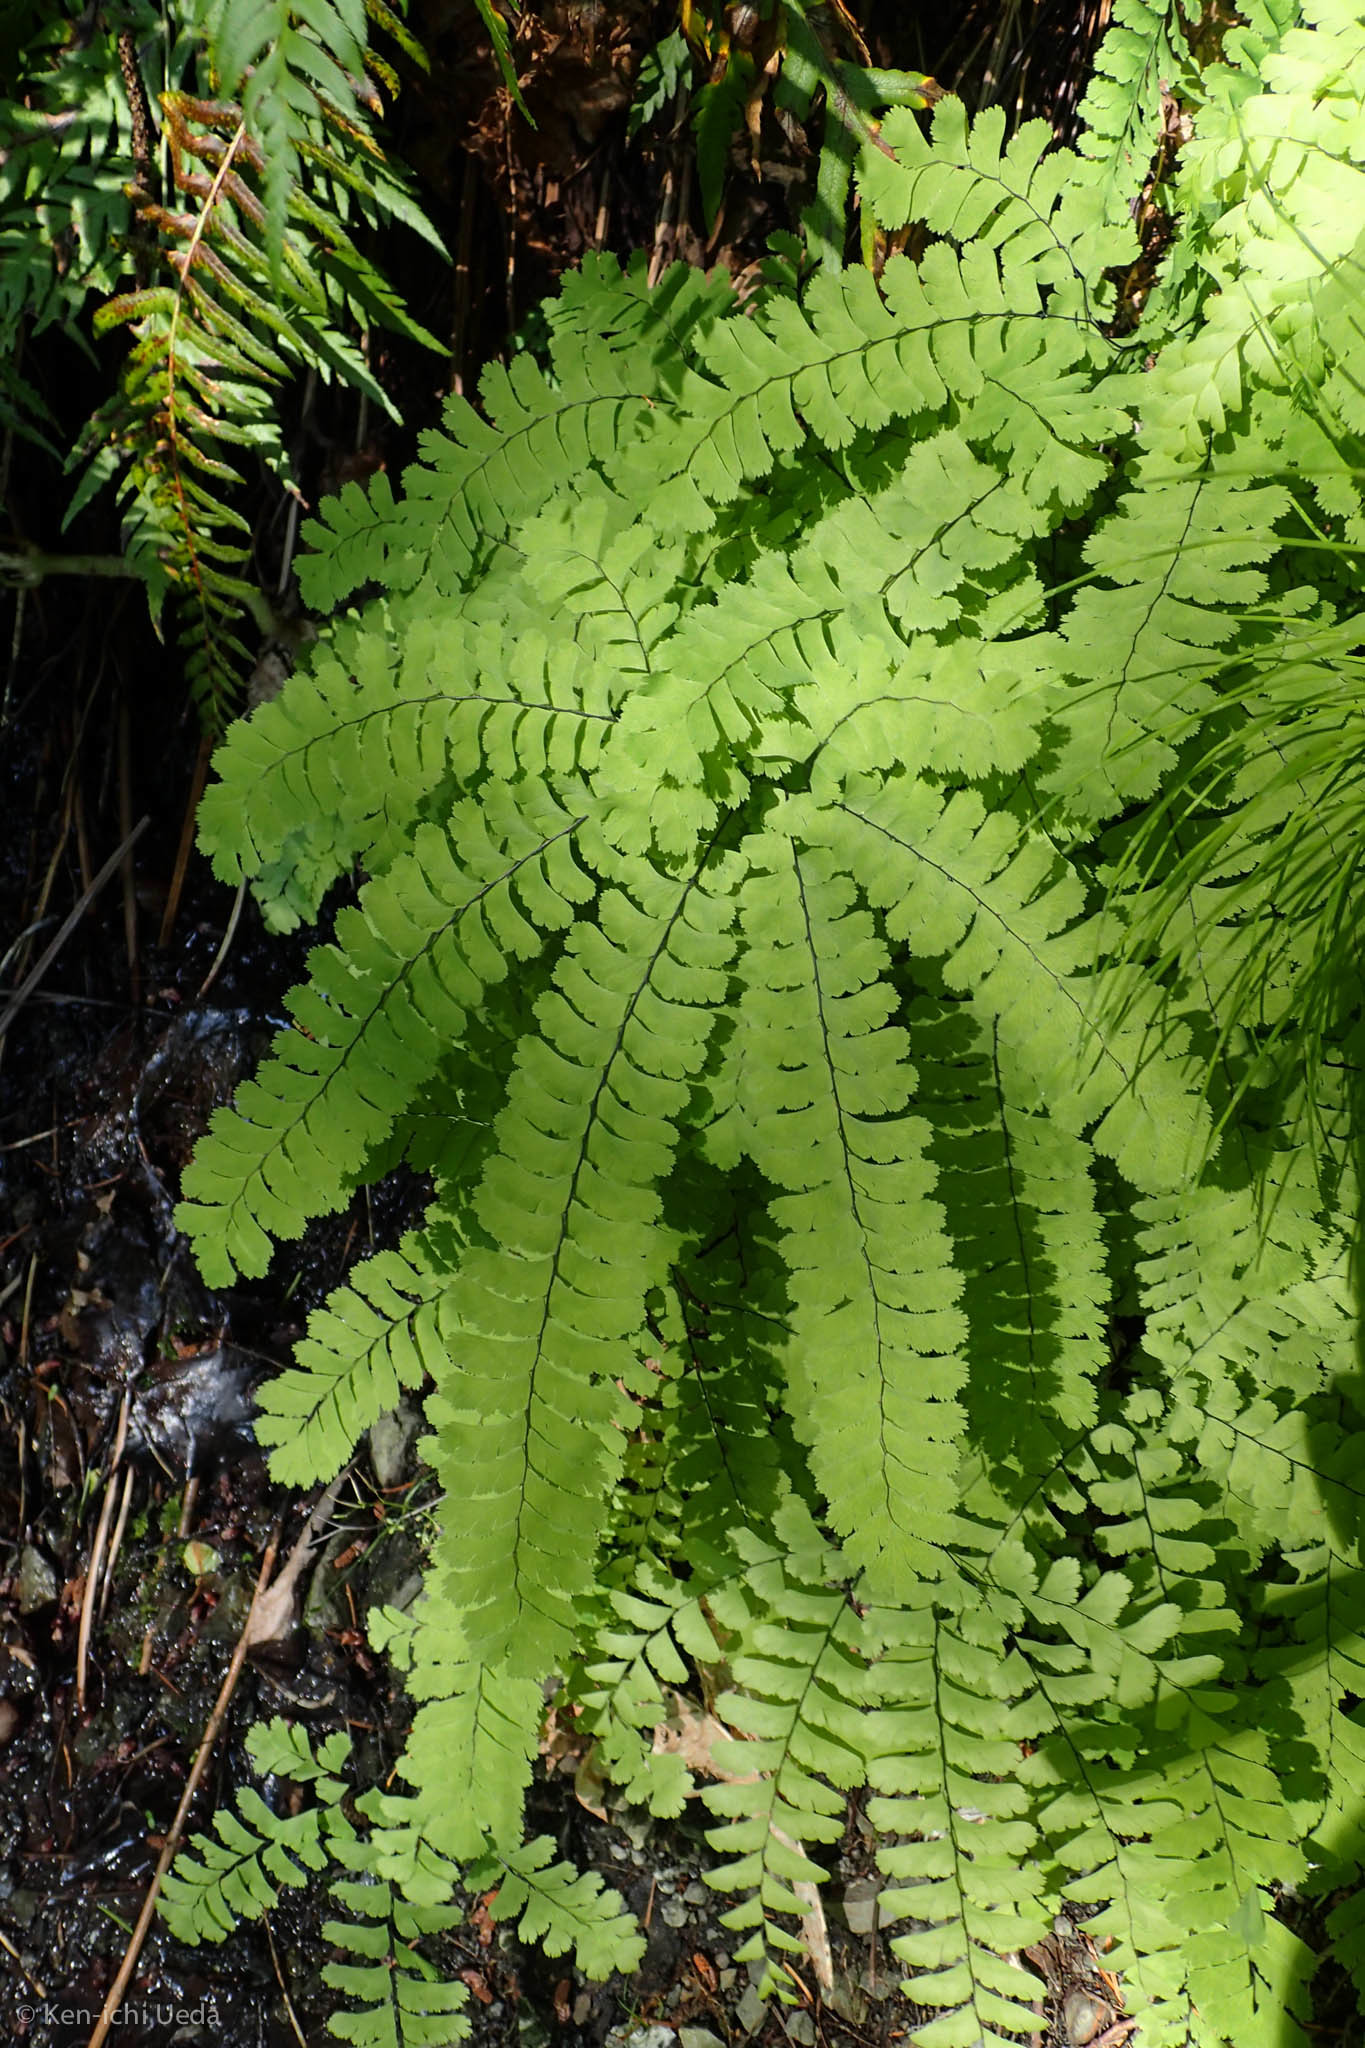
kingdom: Plantae
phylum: Tracheophyta
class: Polypodiopsida
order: Polypodiales
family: Pteridaceae
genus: Adiantum
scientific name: Adiantum aleuticum
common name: Aleutian maidenhair fern
